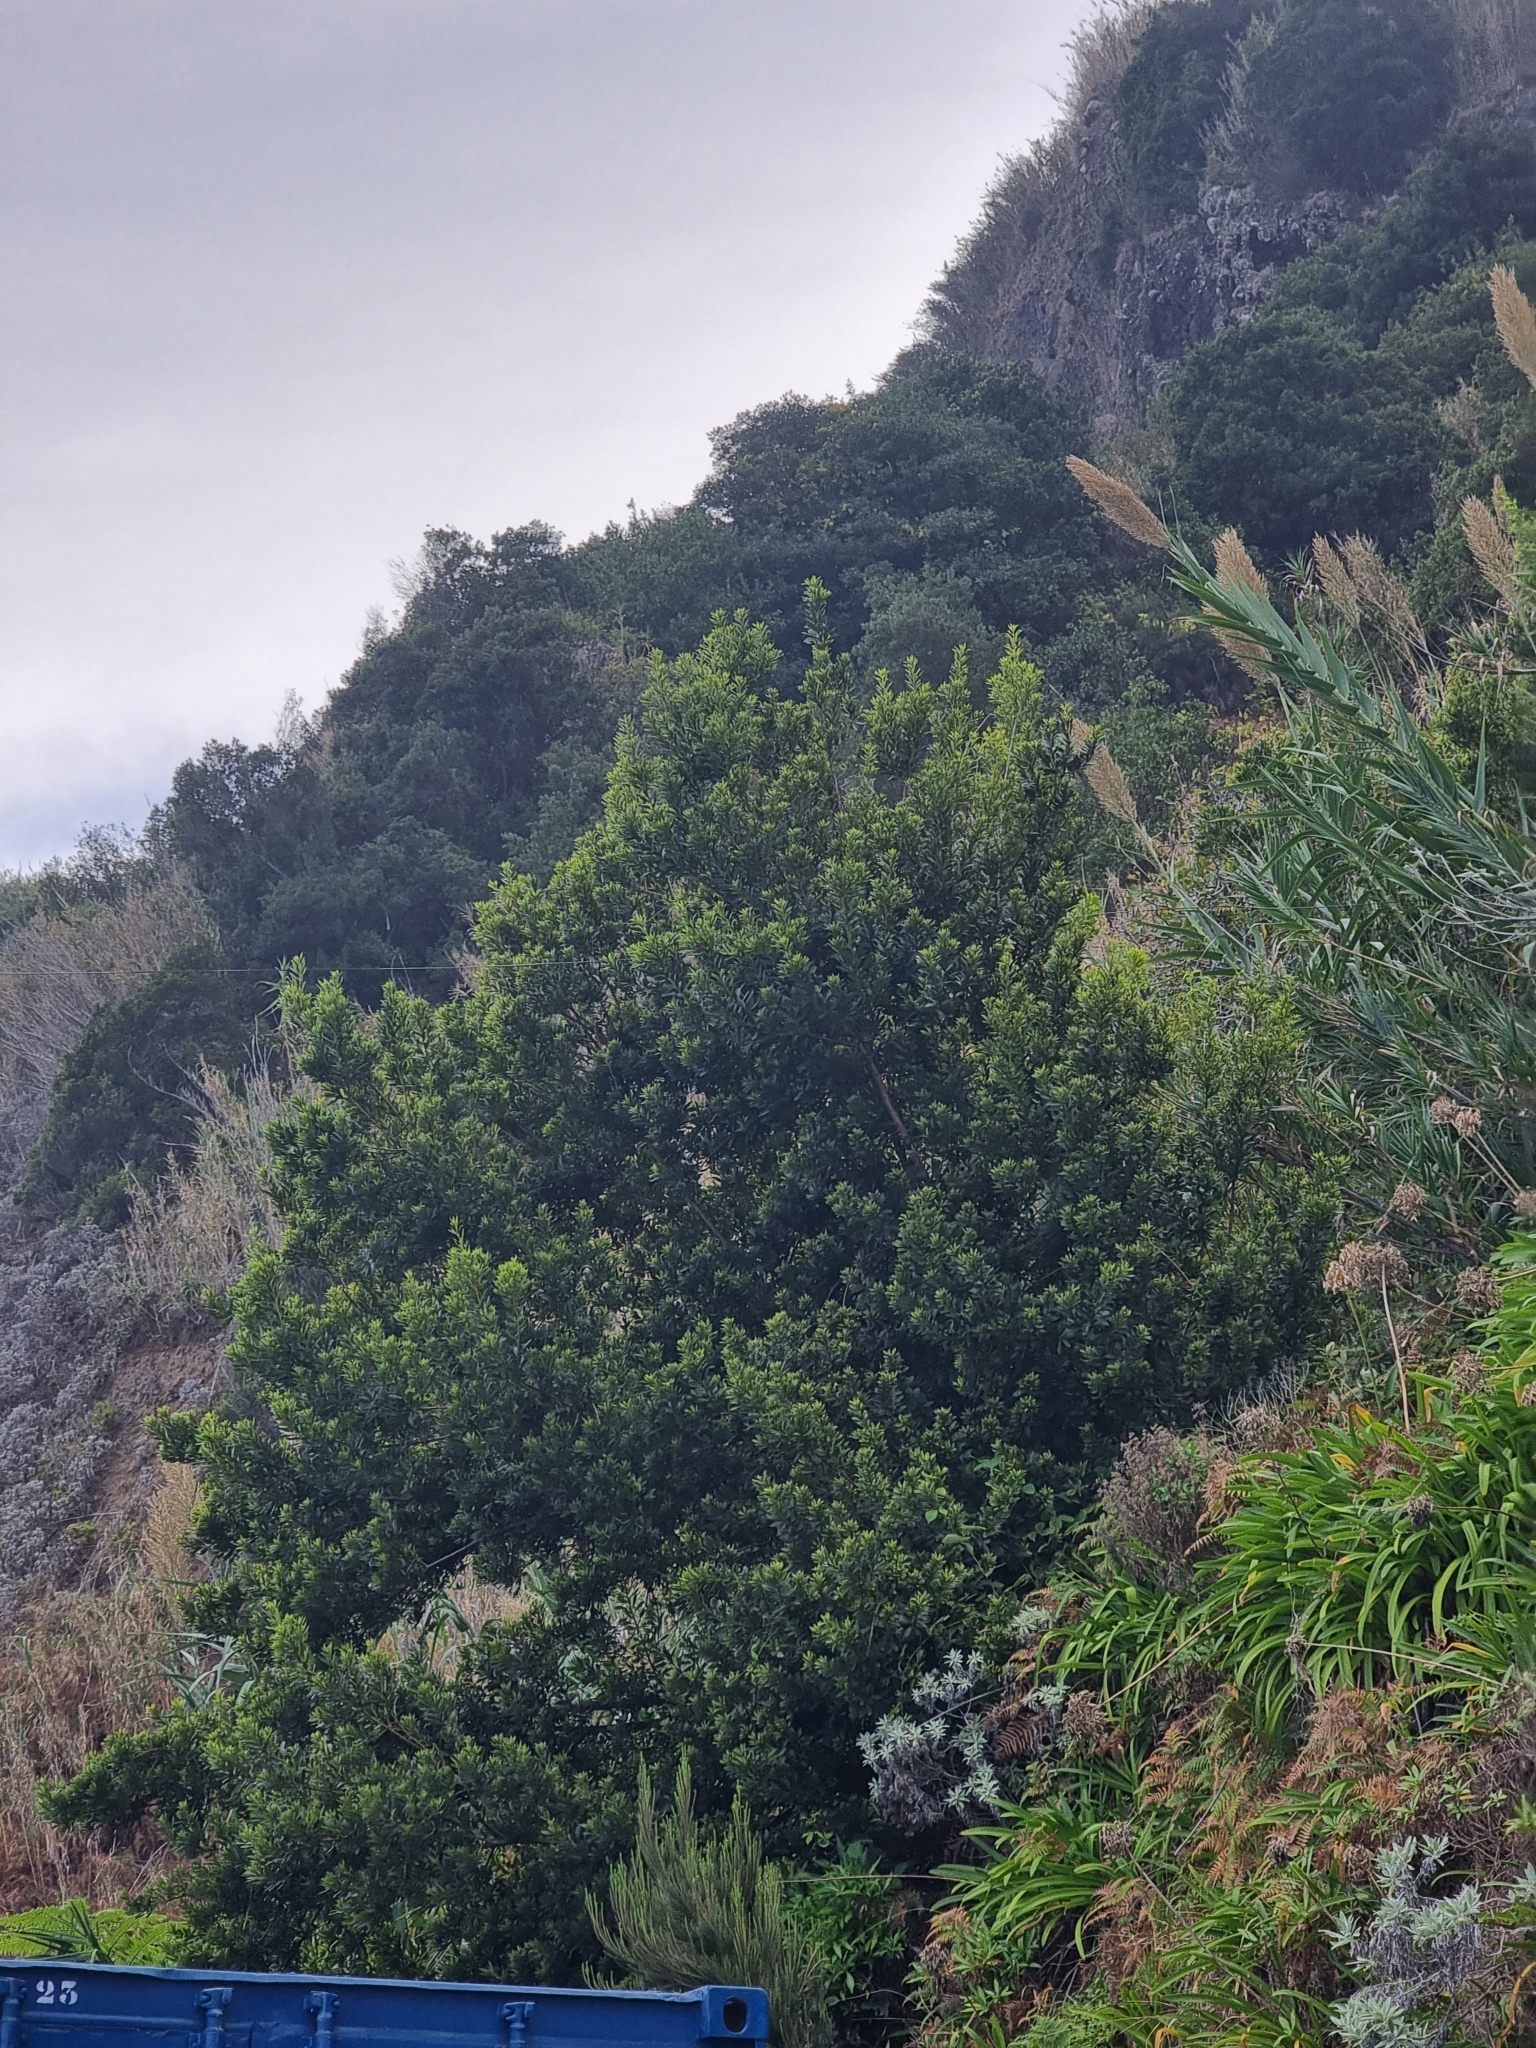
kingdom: Plantae
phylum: Tracheophyta
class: Magnoliopsida
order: Fagales
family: Myricaceae
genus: Morella
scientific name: Morella faya
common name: Firetree
